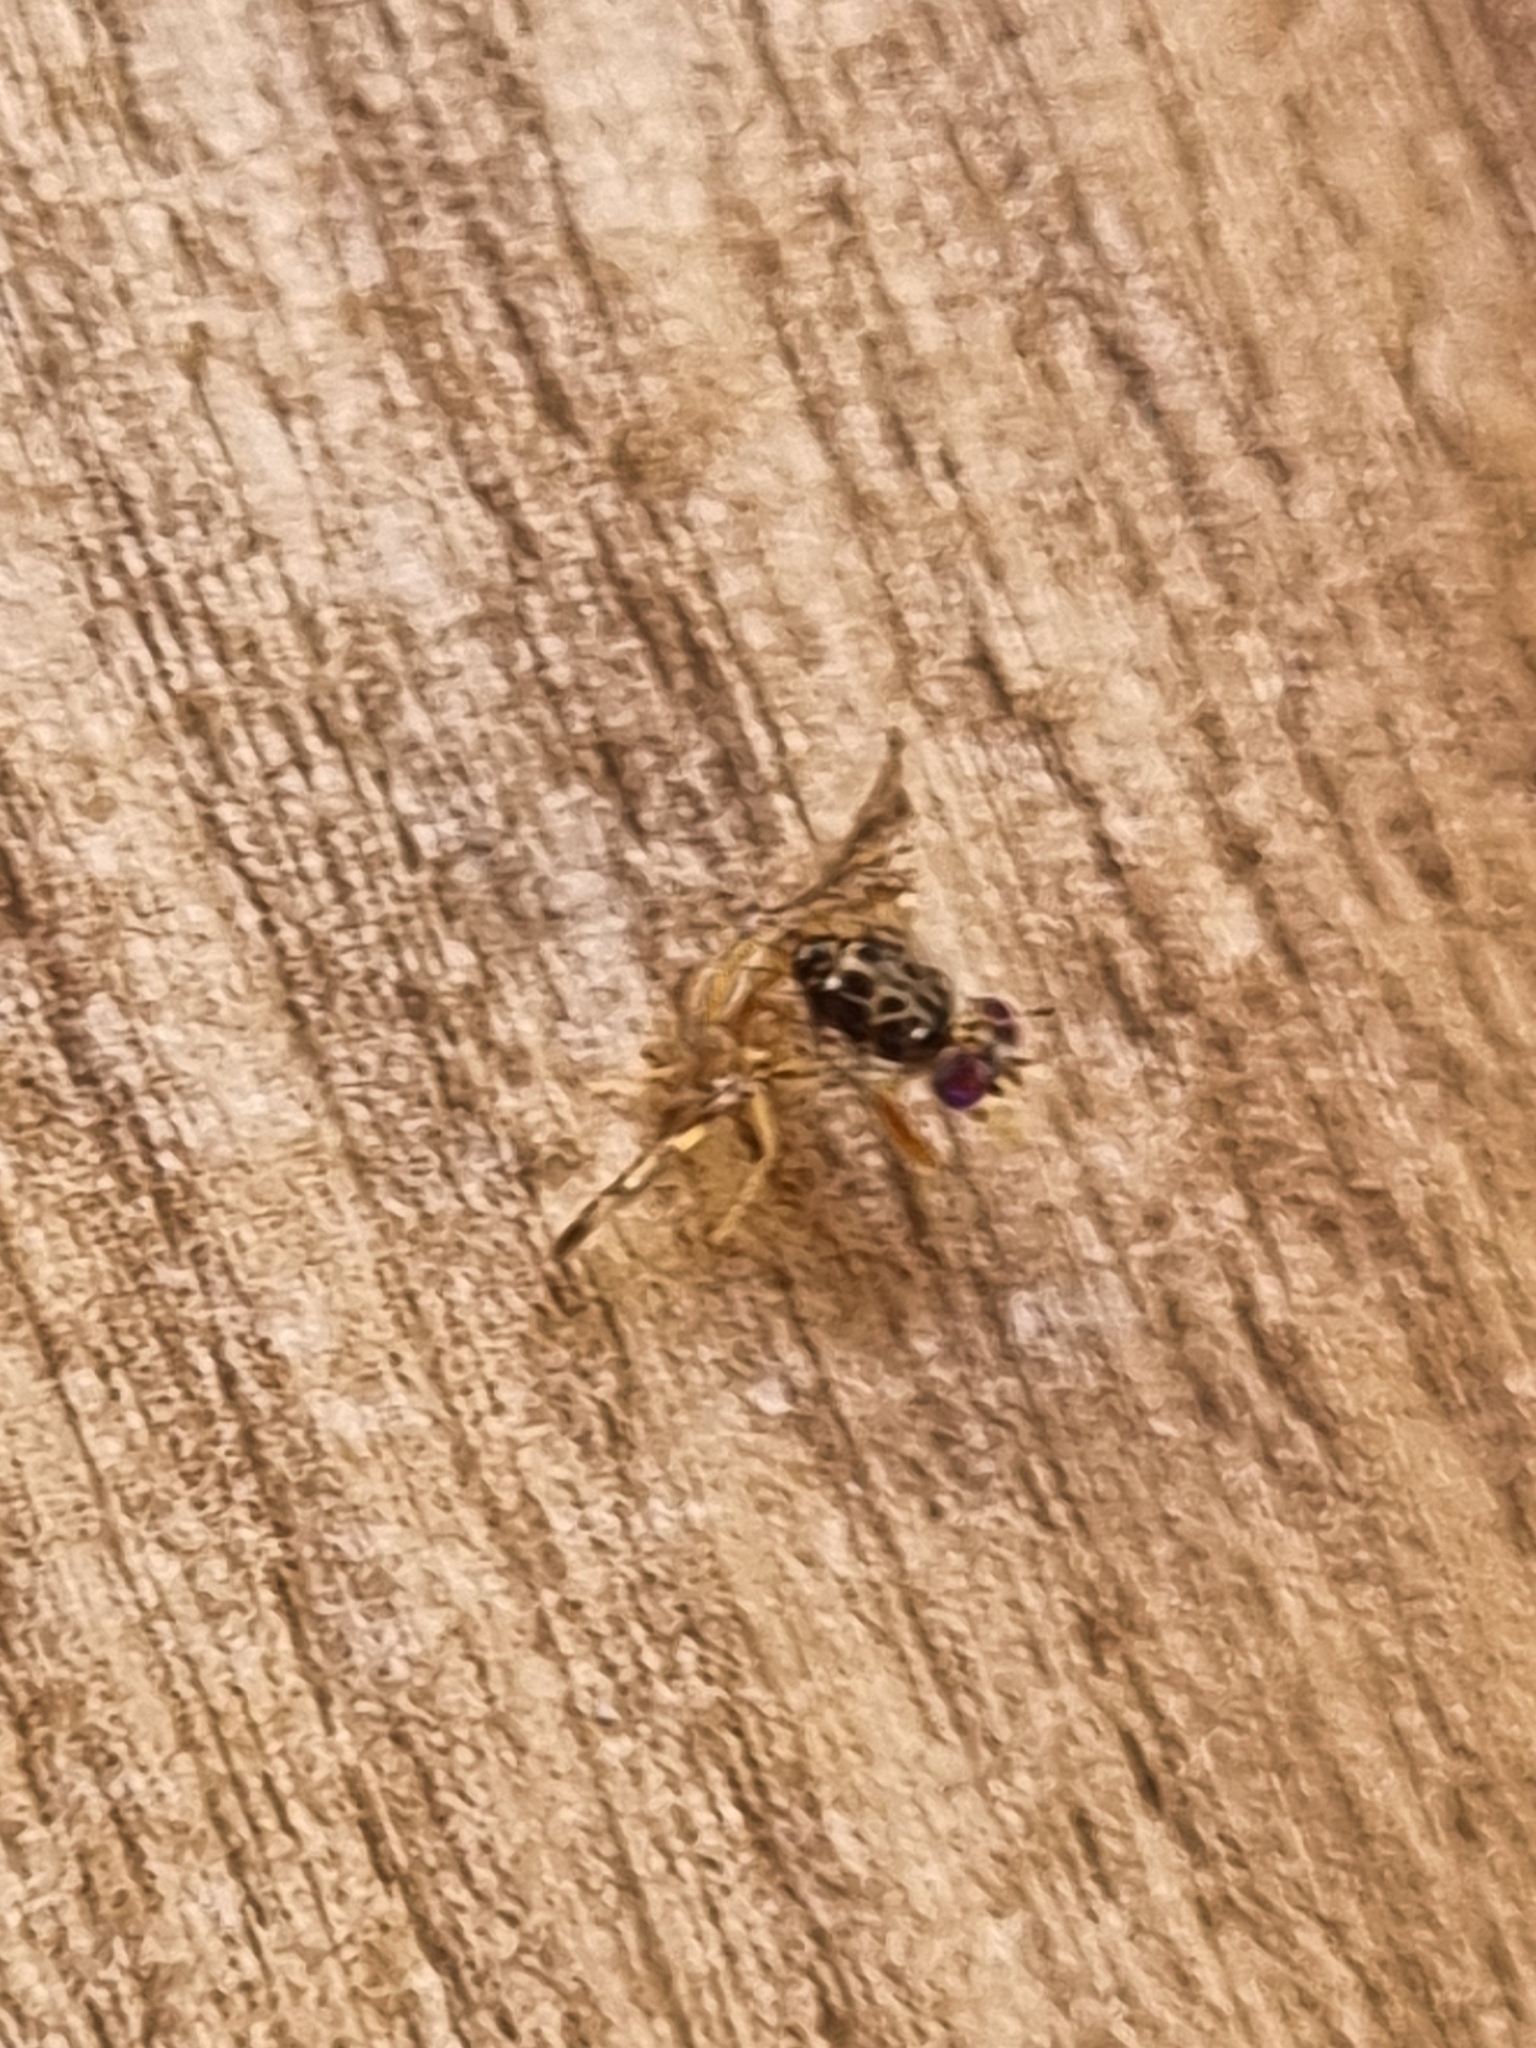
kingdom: Animalia
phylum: Arthropoda
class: Insecta
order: Diptera
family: Tephritidae
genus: Ceratitis
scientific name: Ceratitis capitata
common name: Mediterranean fruit fly
